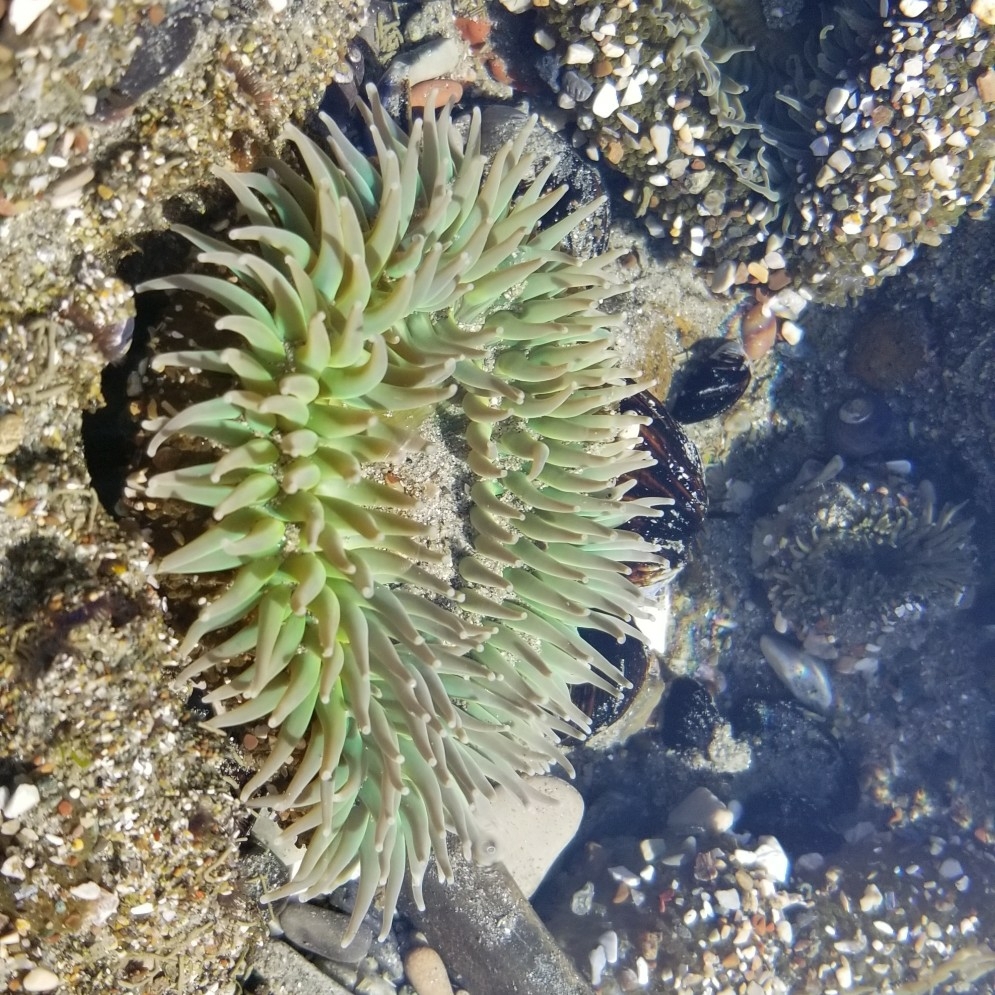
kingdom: Animalia
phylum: Cnidaria
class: Anthozoa
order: Actiniaria
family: Actiniidae
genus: Anthopleura
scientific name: Anthopleura xanthogrammica
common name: Giant green anemone
